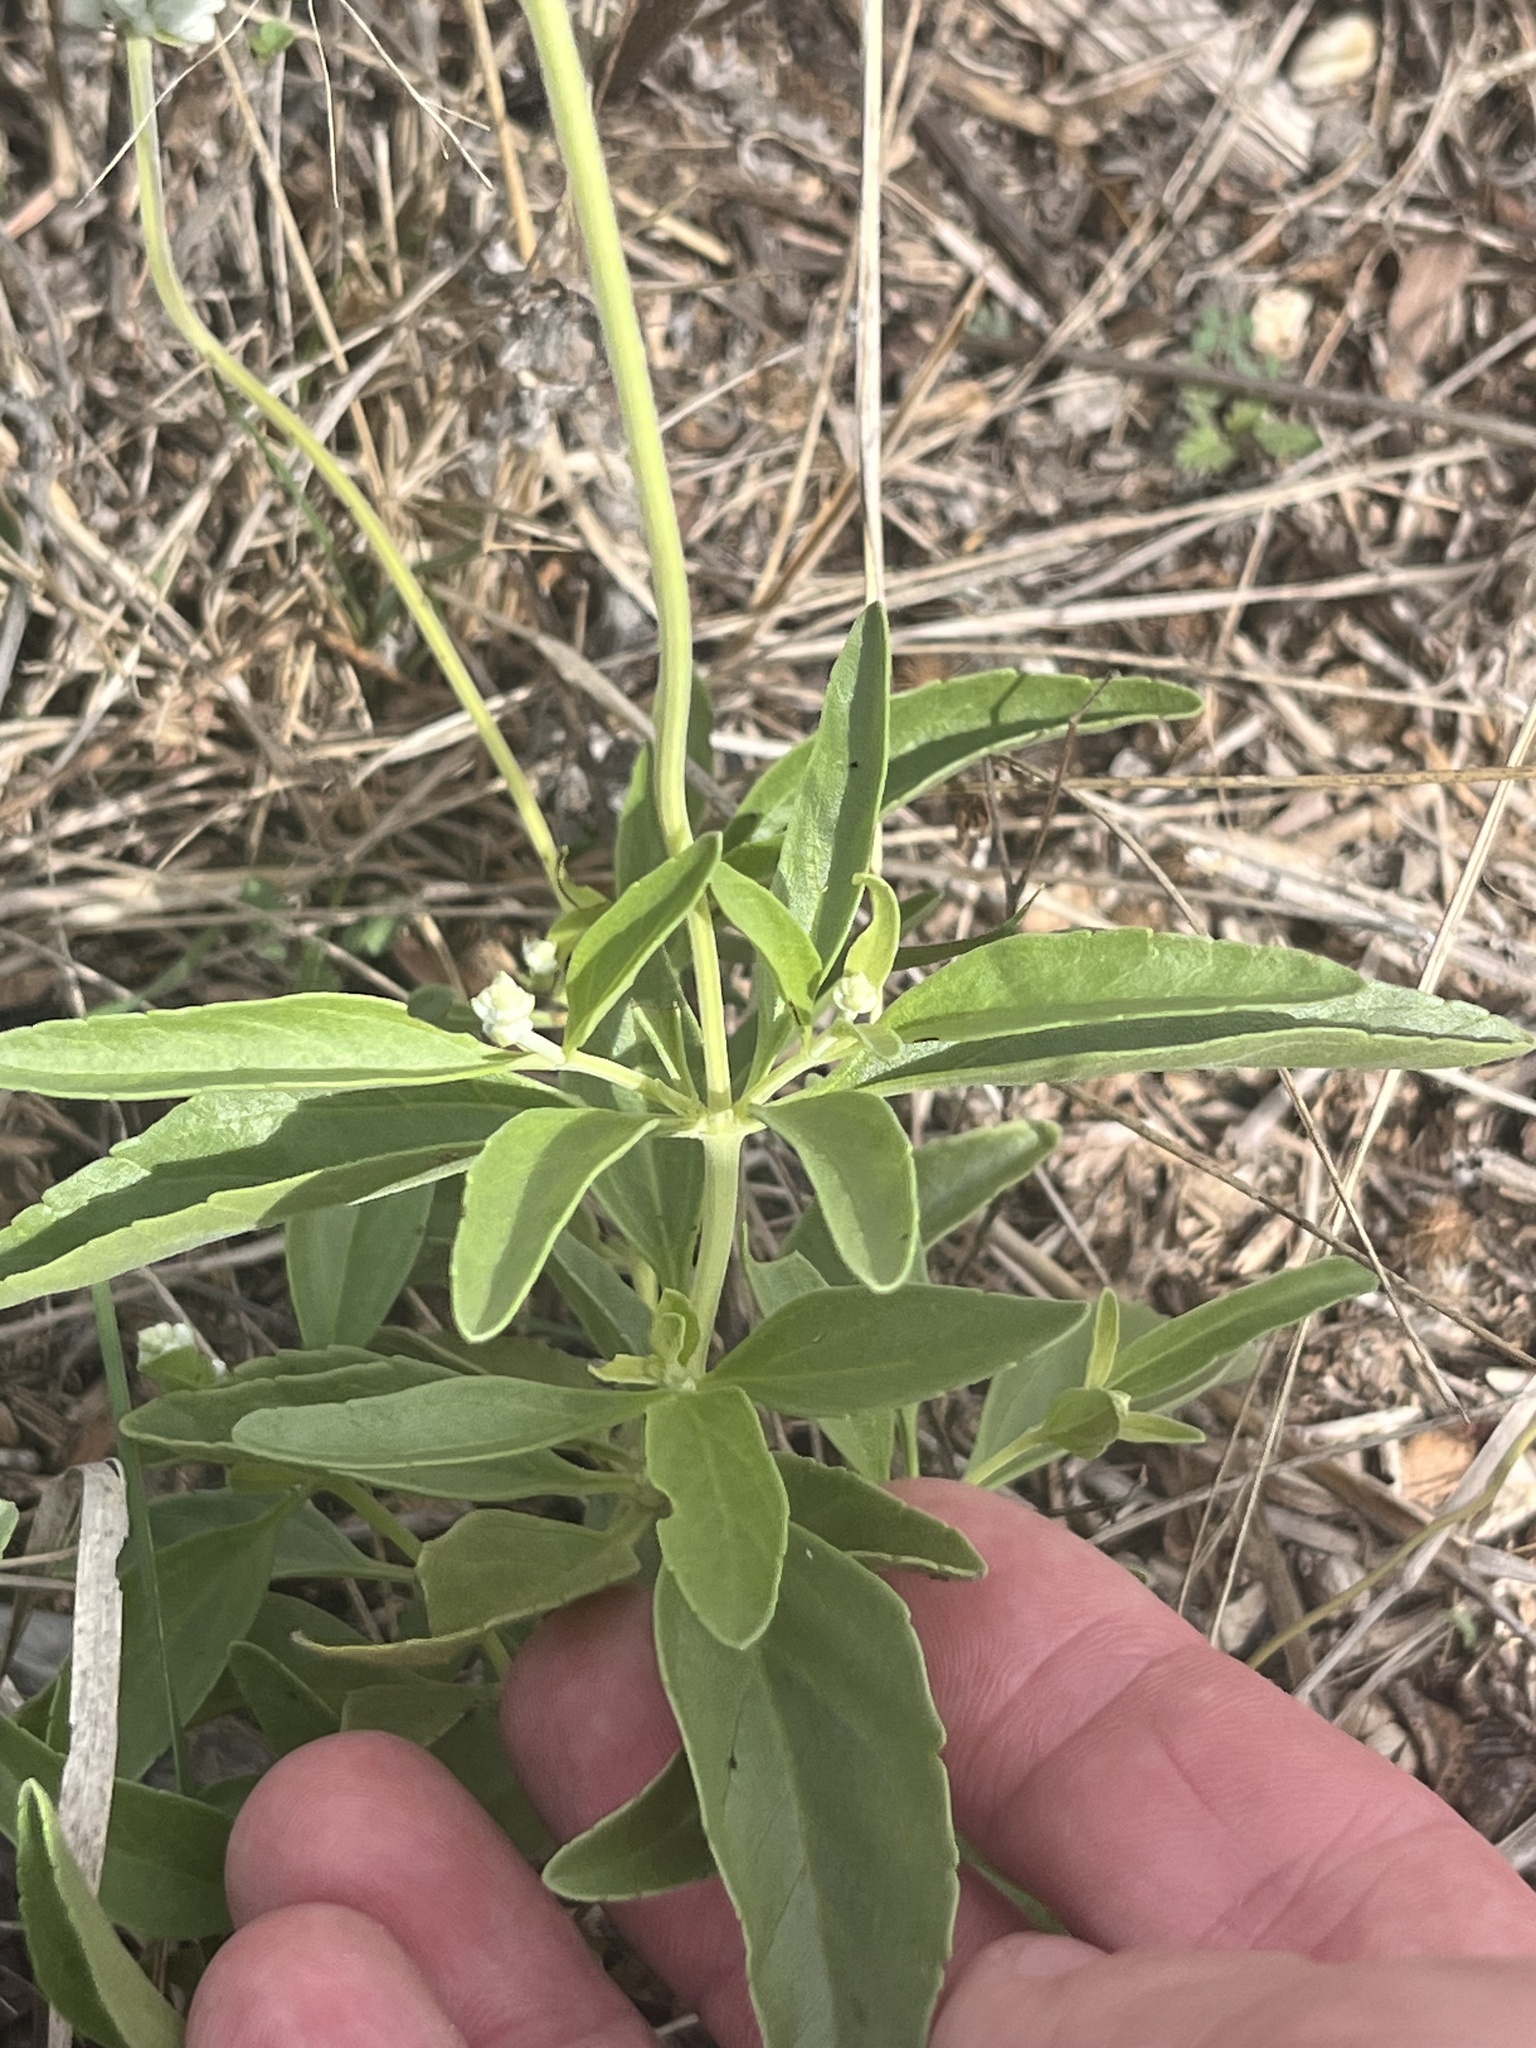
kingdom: Plantae
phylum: Tracheophyta
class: Magnoliopsida
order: Lamiales
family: Lamiaceae
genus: Salvia
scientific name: Salvia farinacea
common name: Mealy sage
